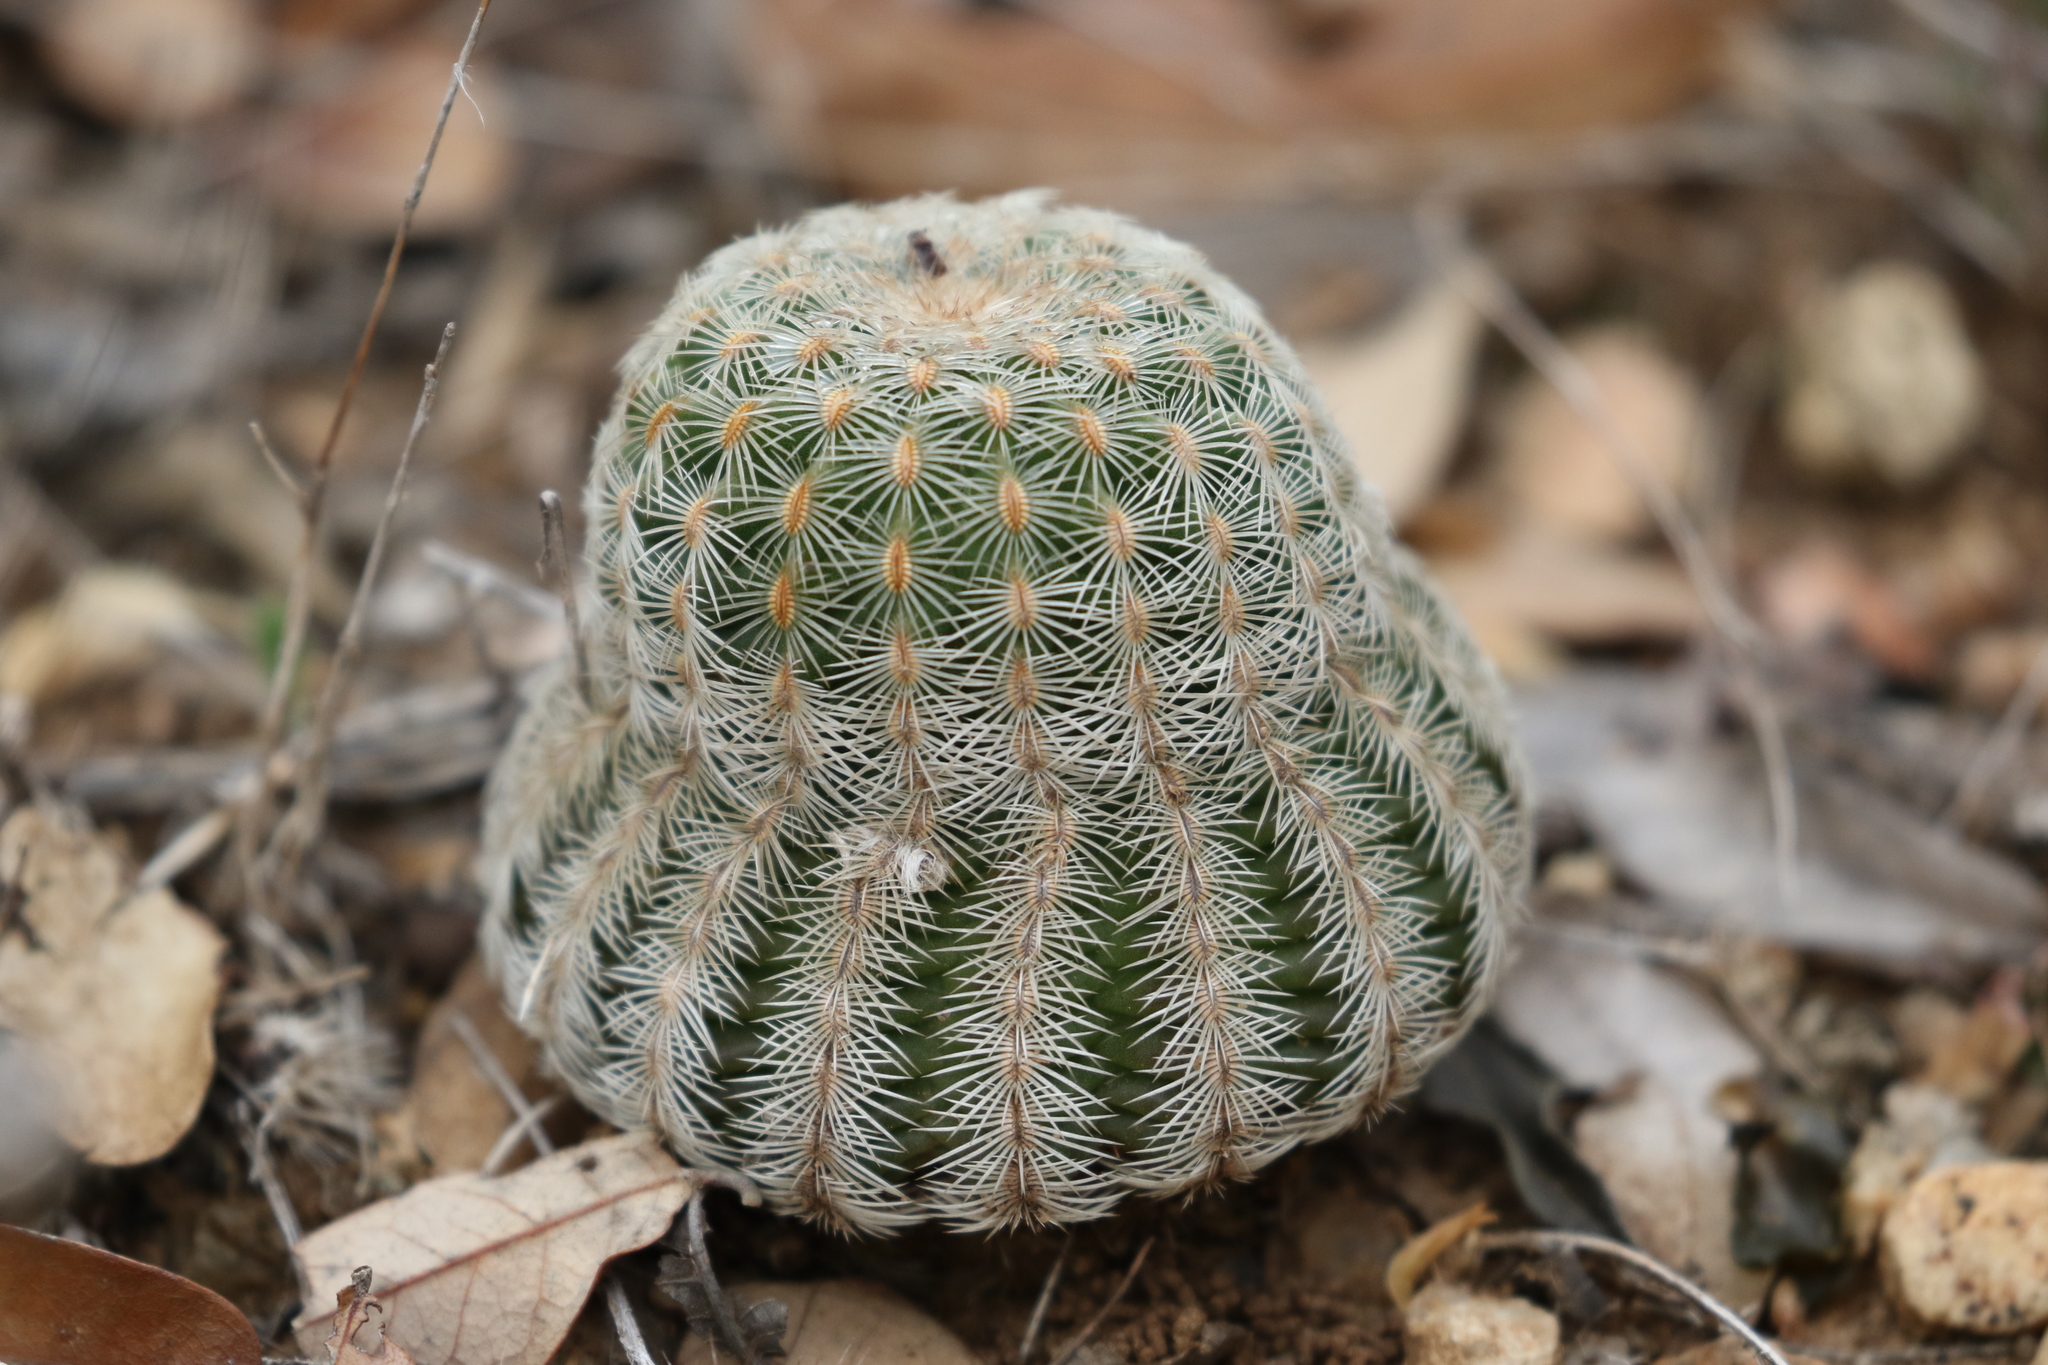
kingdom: Plantae
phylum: Tracheophyta
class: Magnoliopsida
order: Caryophyllales
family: Cactaceae
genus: Echinocereus
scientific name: Echinocereus reichenbachii
